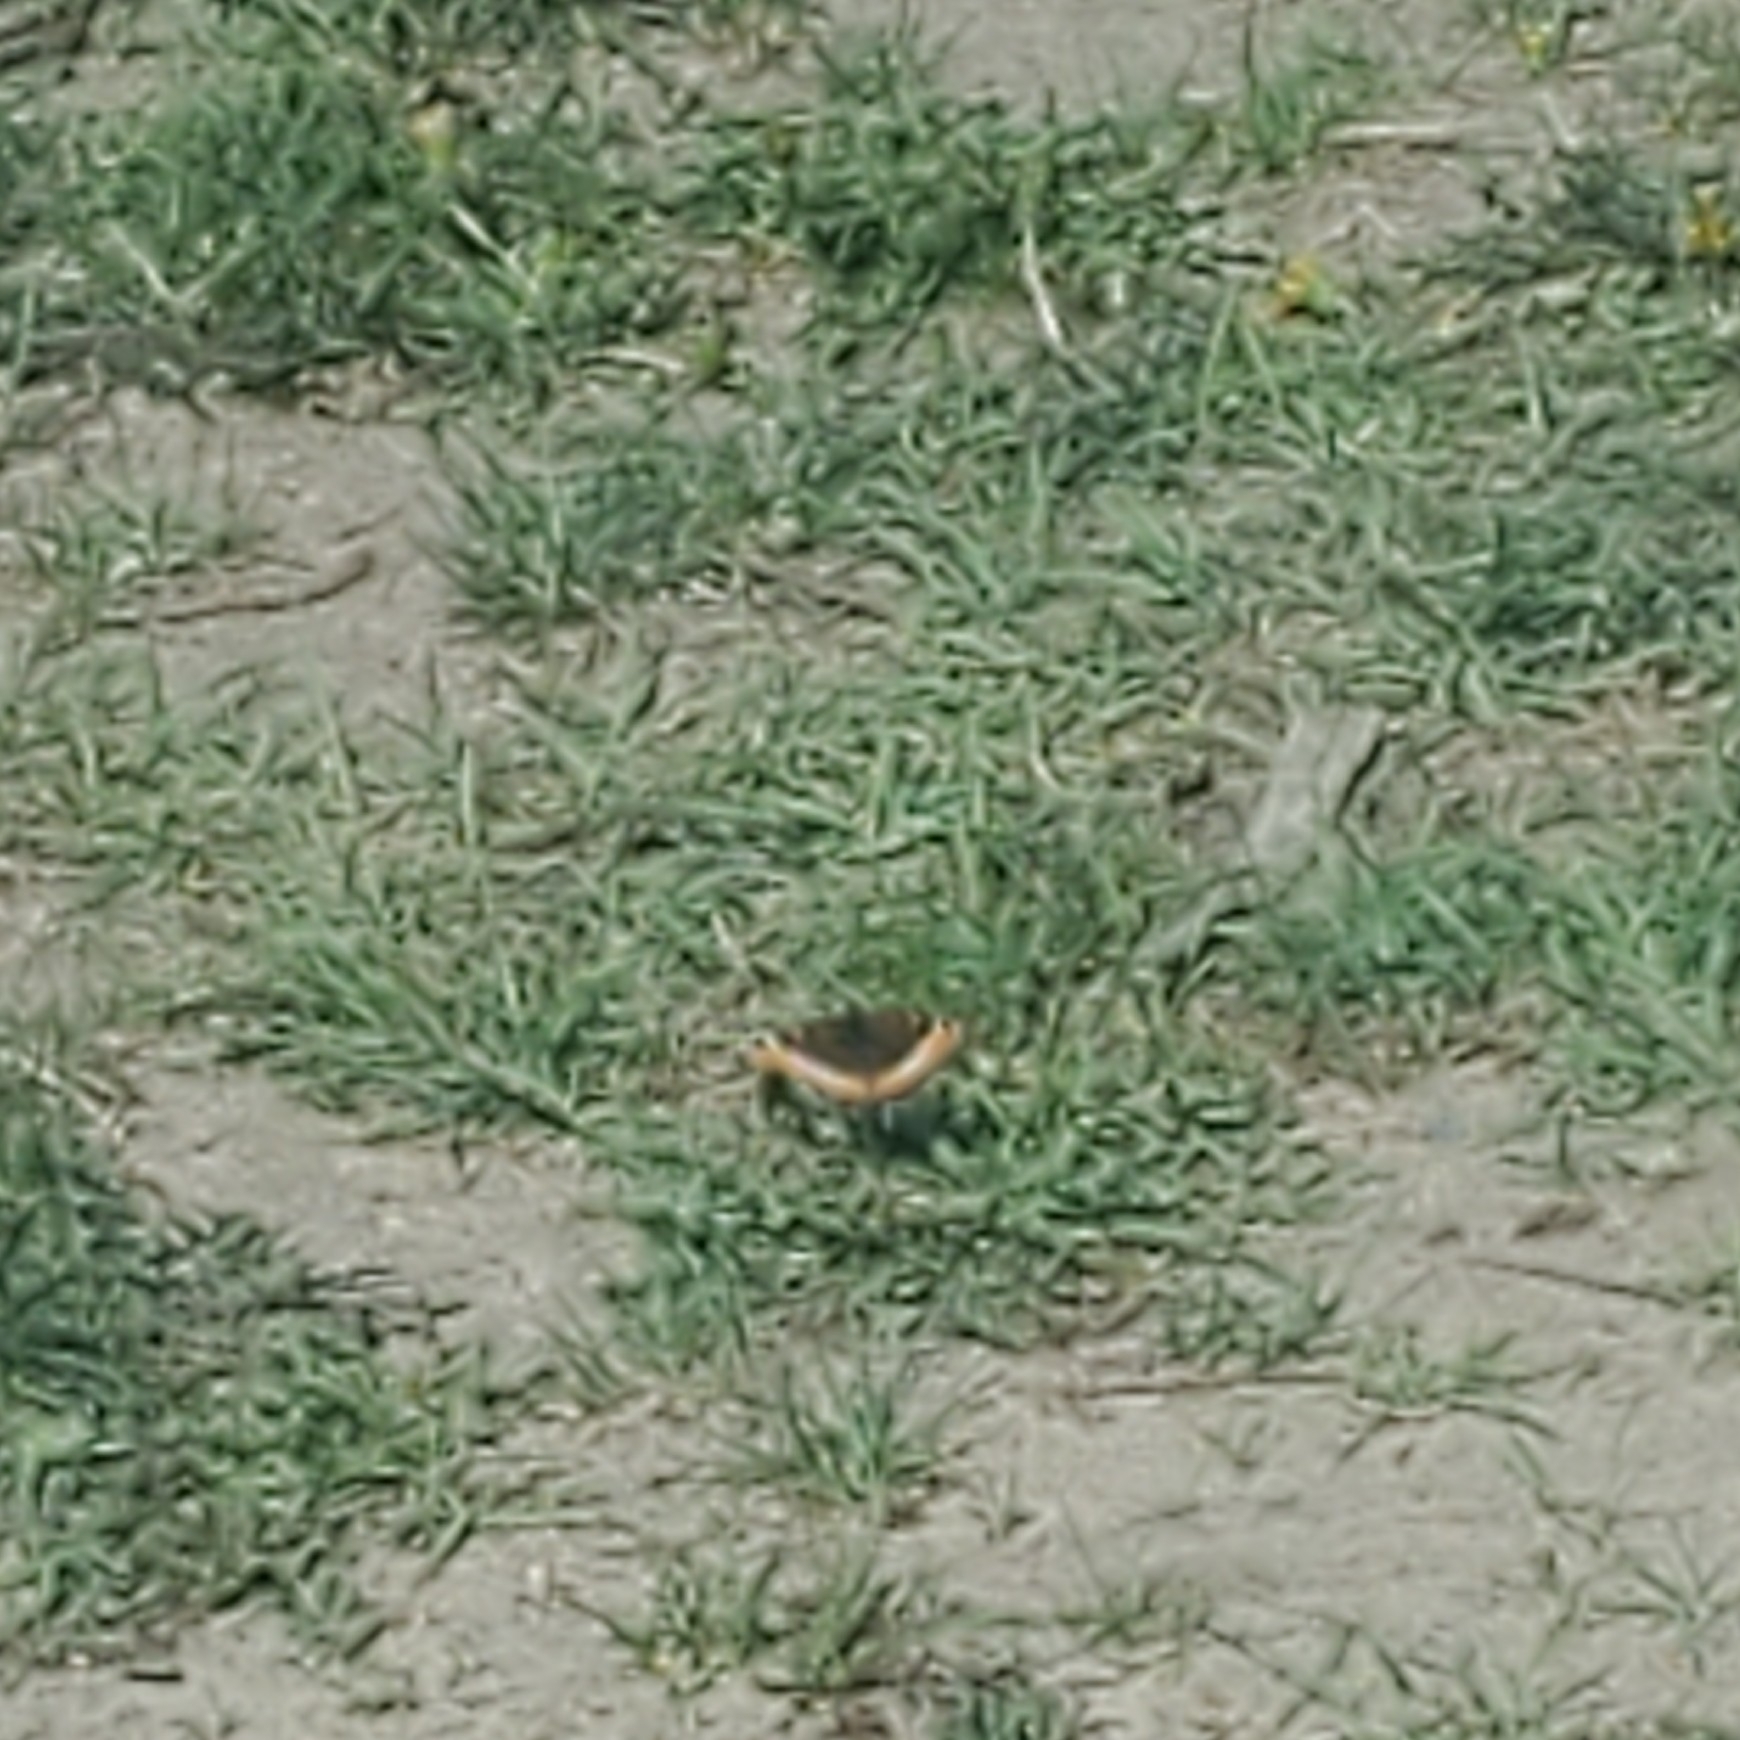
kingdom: Animalia
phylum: Arthropoda
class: Insecta
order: Lepidoptera
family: Nymphalidae
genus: Aglais
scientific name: Aglais milberti
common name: Milbert's tortoiseshell
